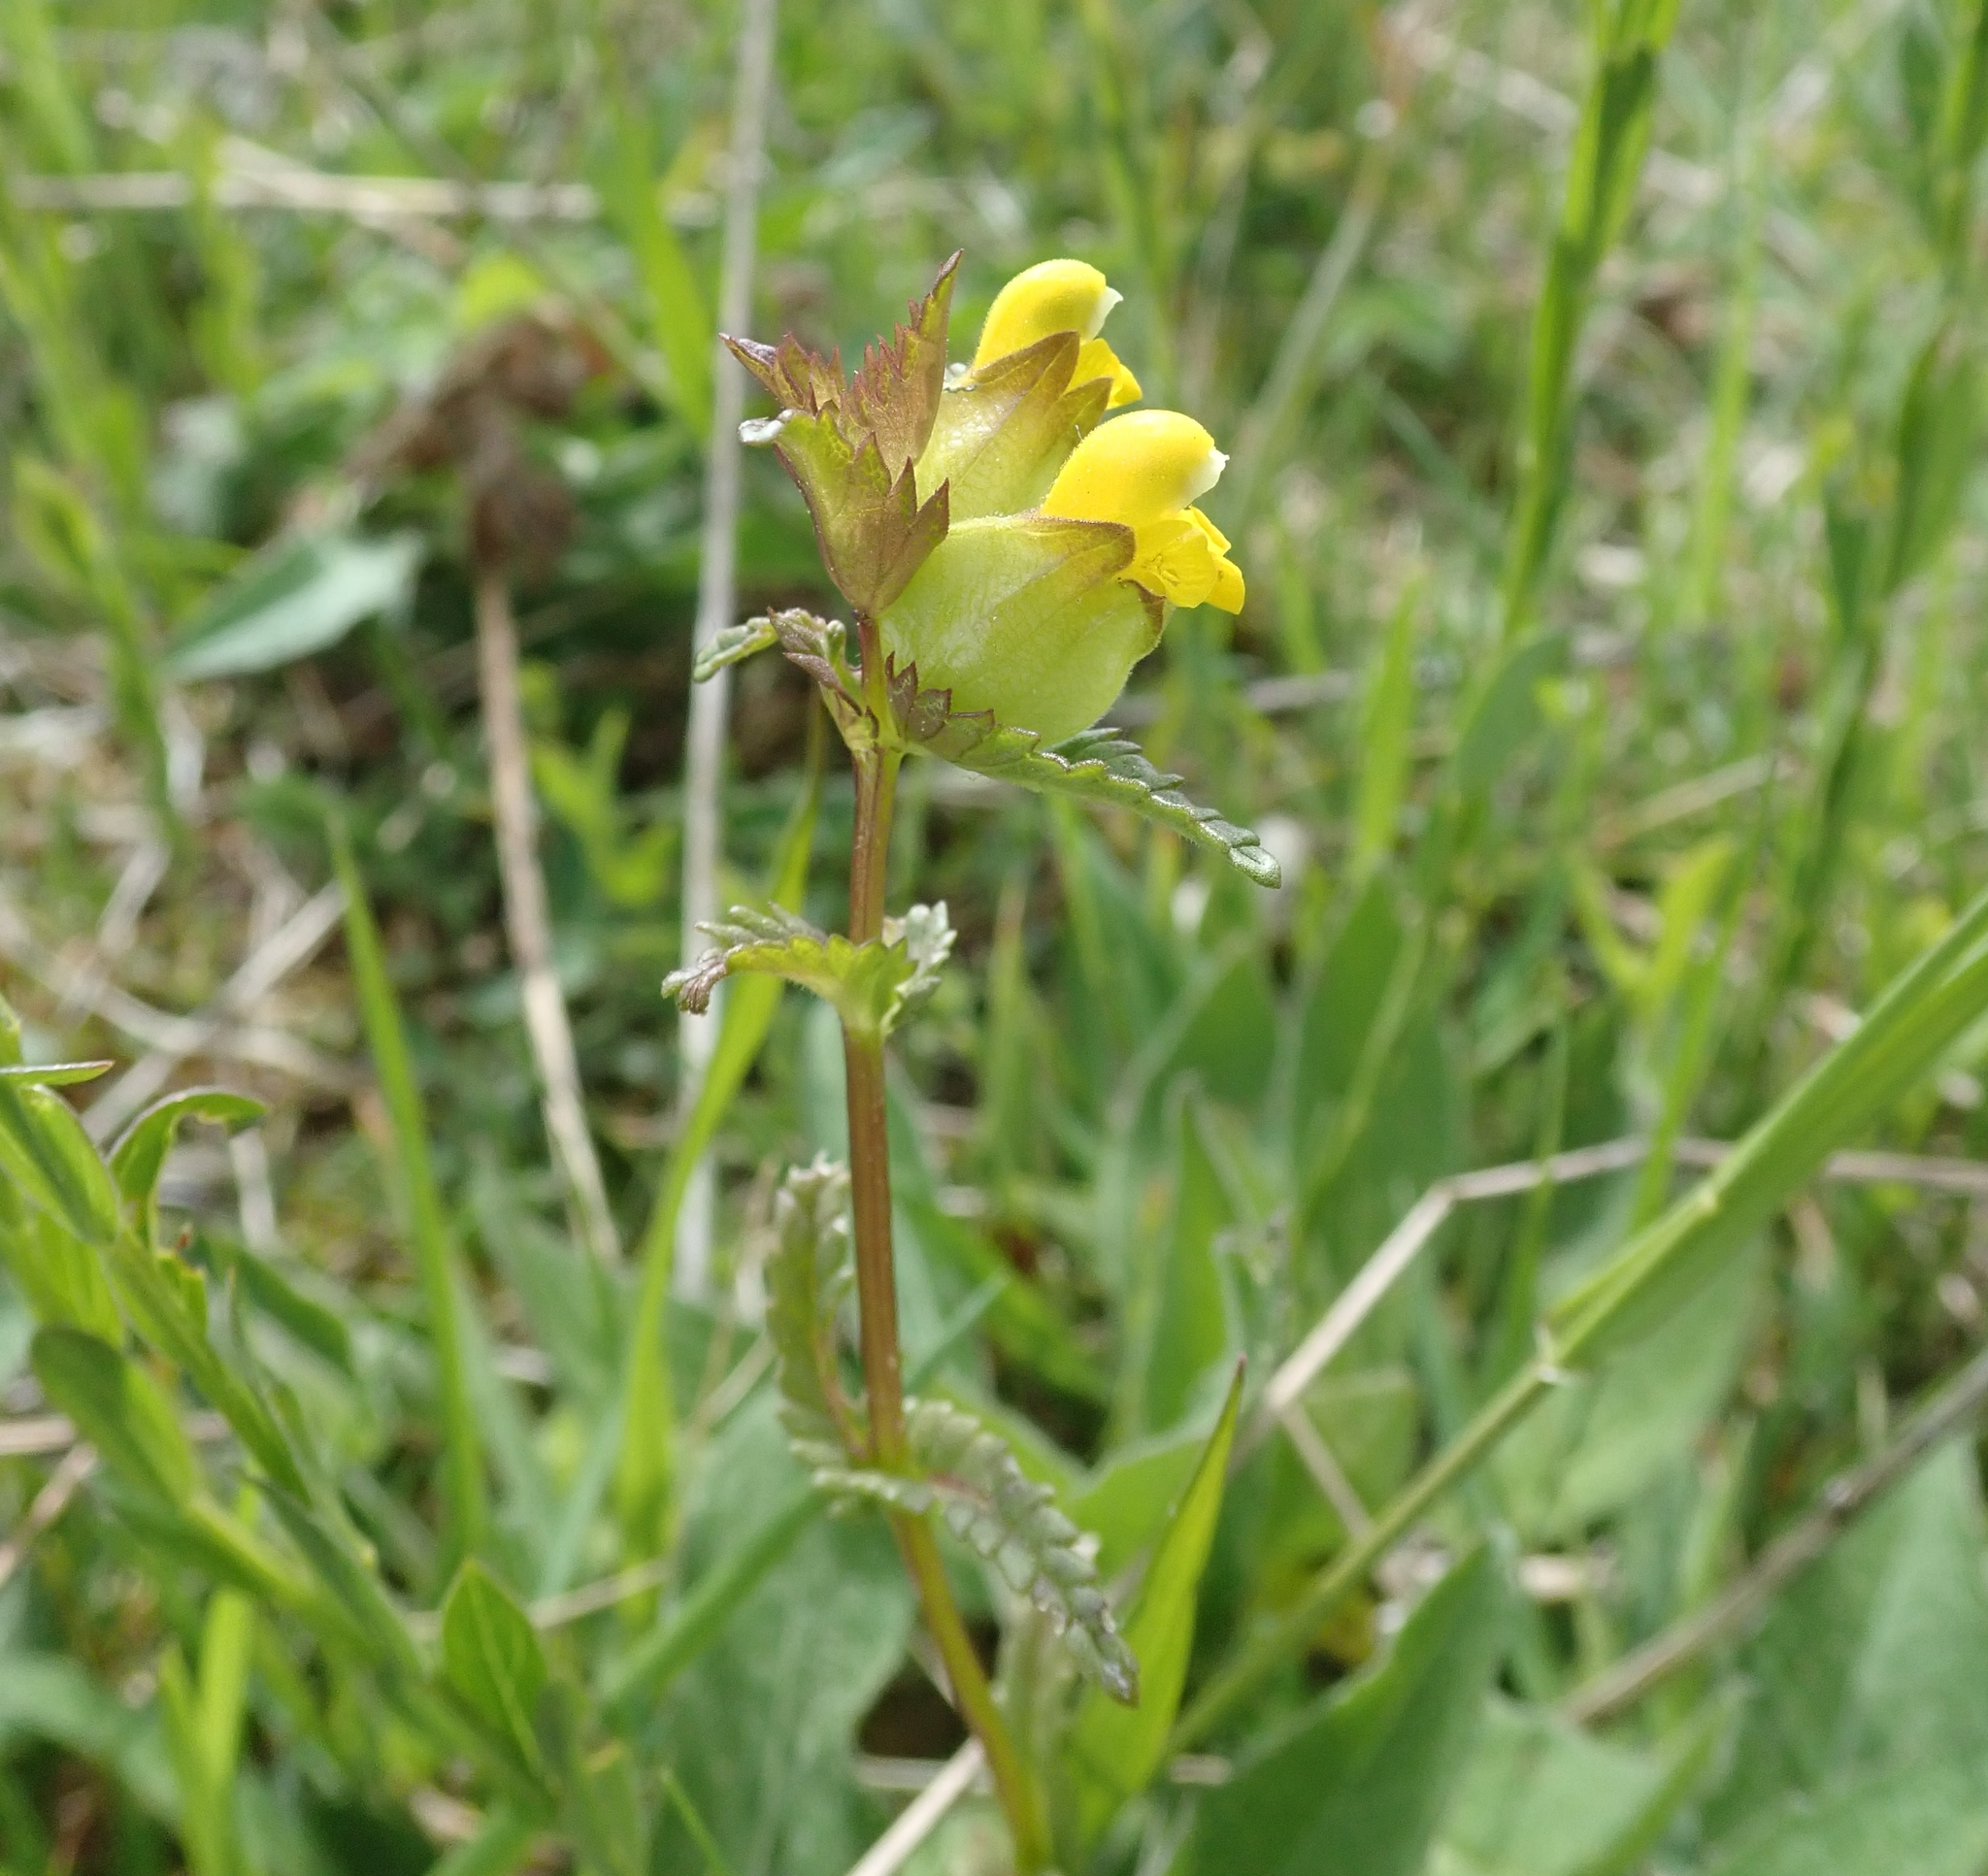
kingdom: Plantae
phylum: Tracheophyta
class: Magnoliopsida
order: Lamiales
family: Orobanchaceae
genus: Rhinanthus
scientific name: Rhinanthus minor
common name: Yellow-rattle
